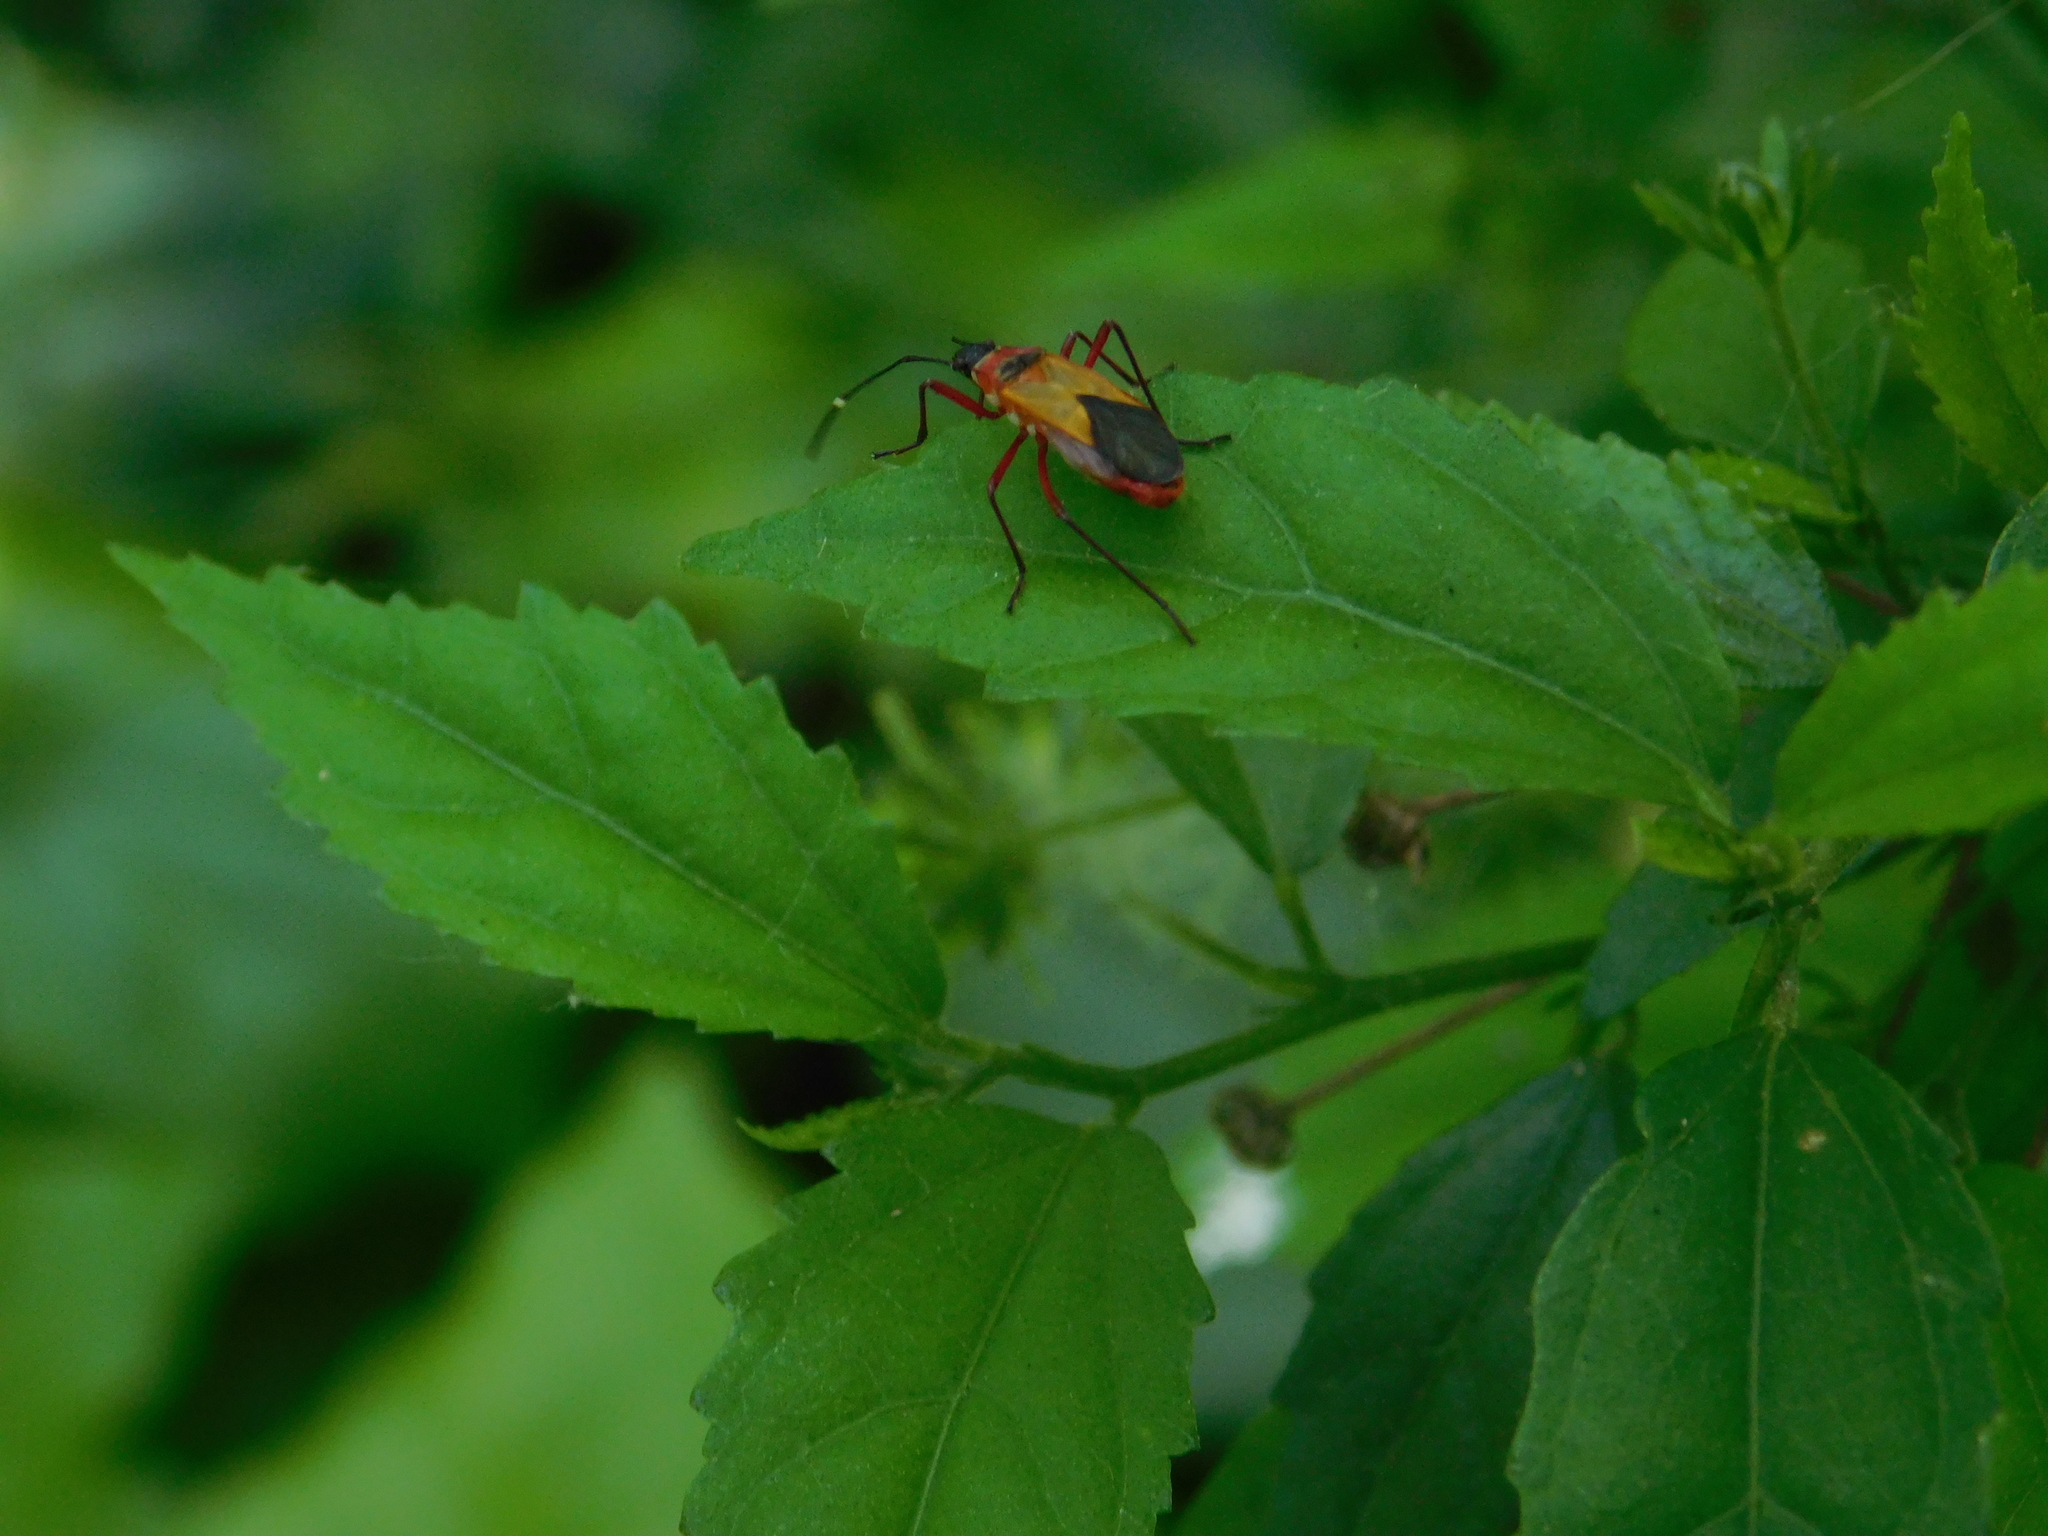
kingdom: Animalia
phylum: Arthropoda
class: Insecta
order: Hemiptera
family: Pyrrhocoridae
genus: Dysdercus
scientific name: Dysdercus
